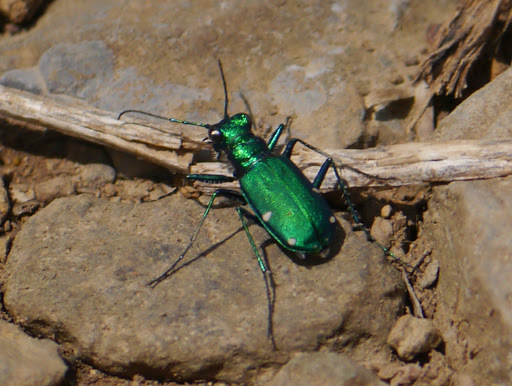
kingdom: Animalia
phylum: Arthropoda
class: Insecta
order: Coleoptera
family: Carabidae
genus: Cicindela
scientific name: Cicindela sexguttata
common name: Six-spotted tiger beetle
